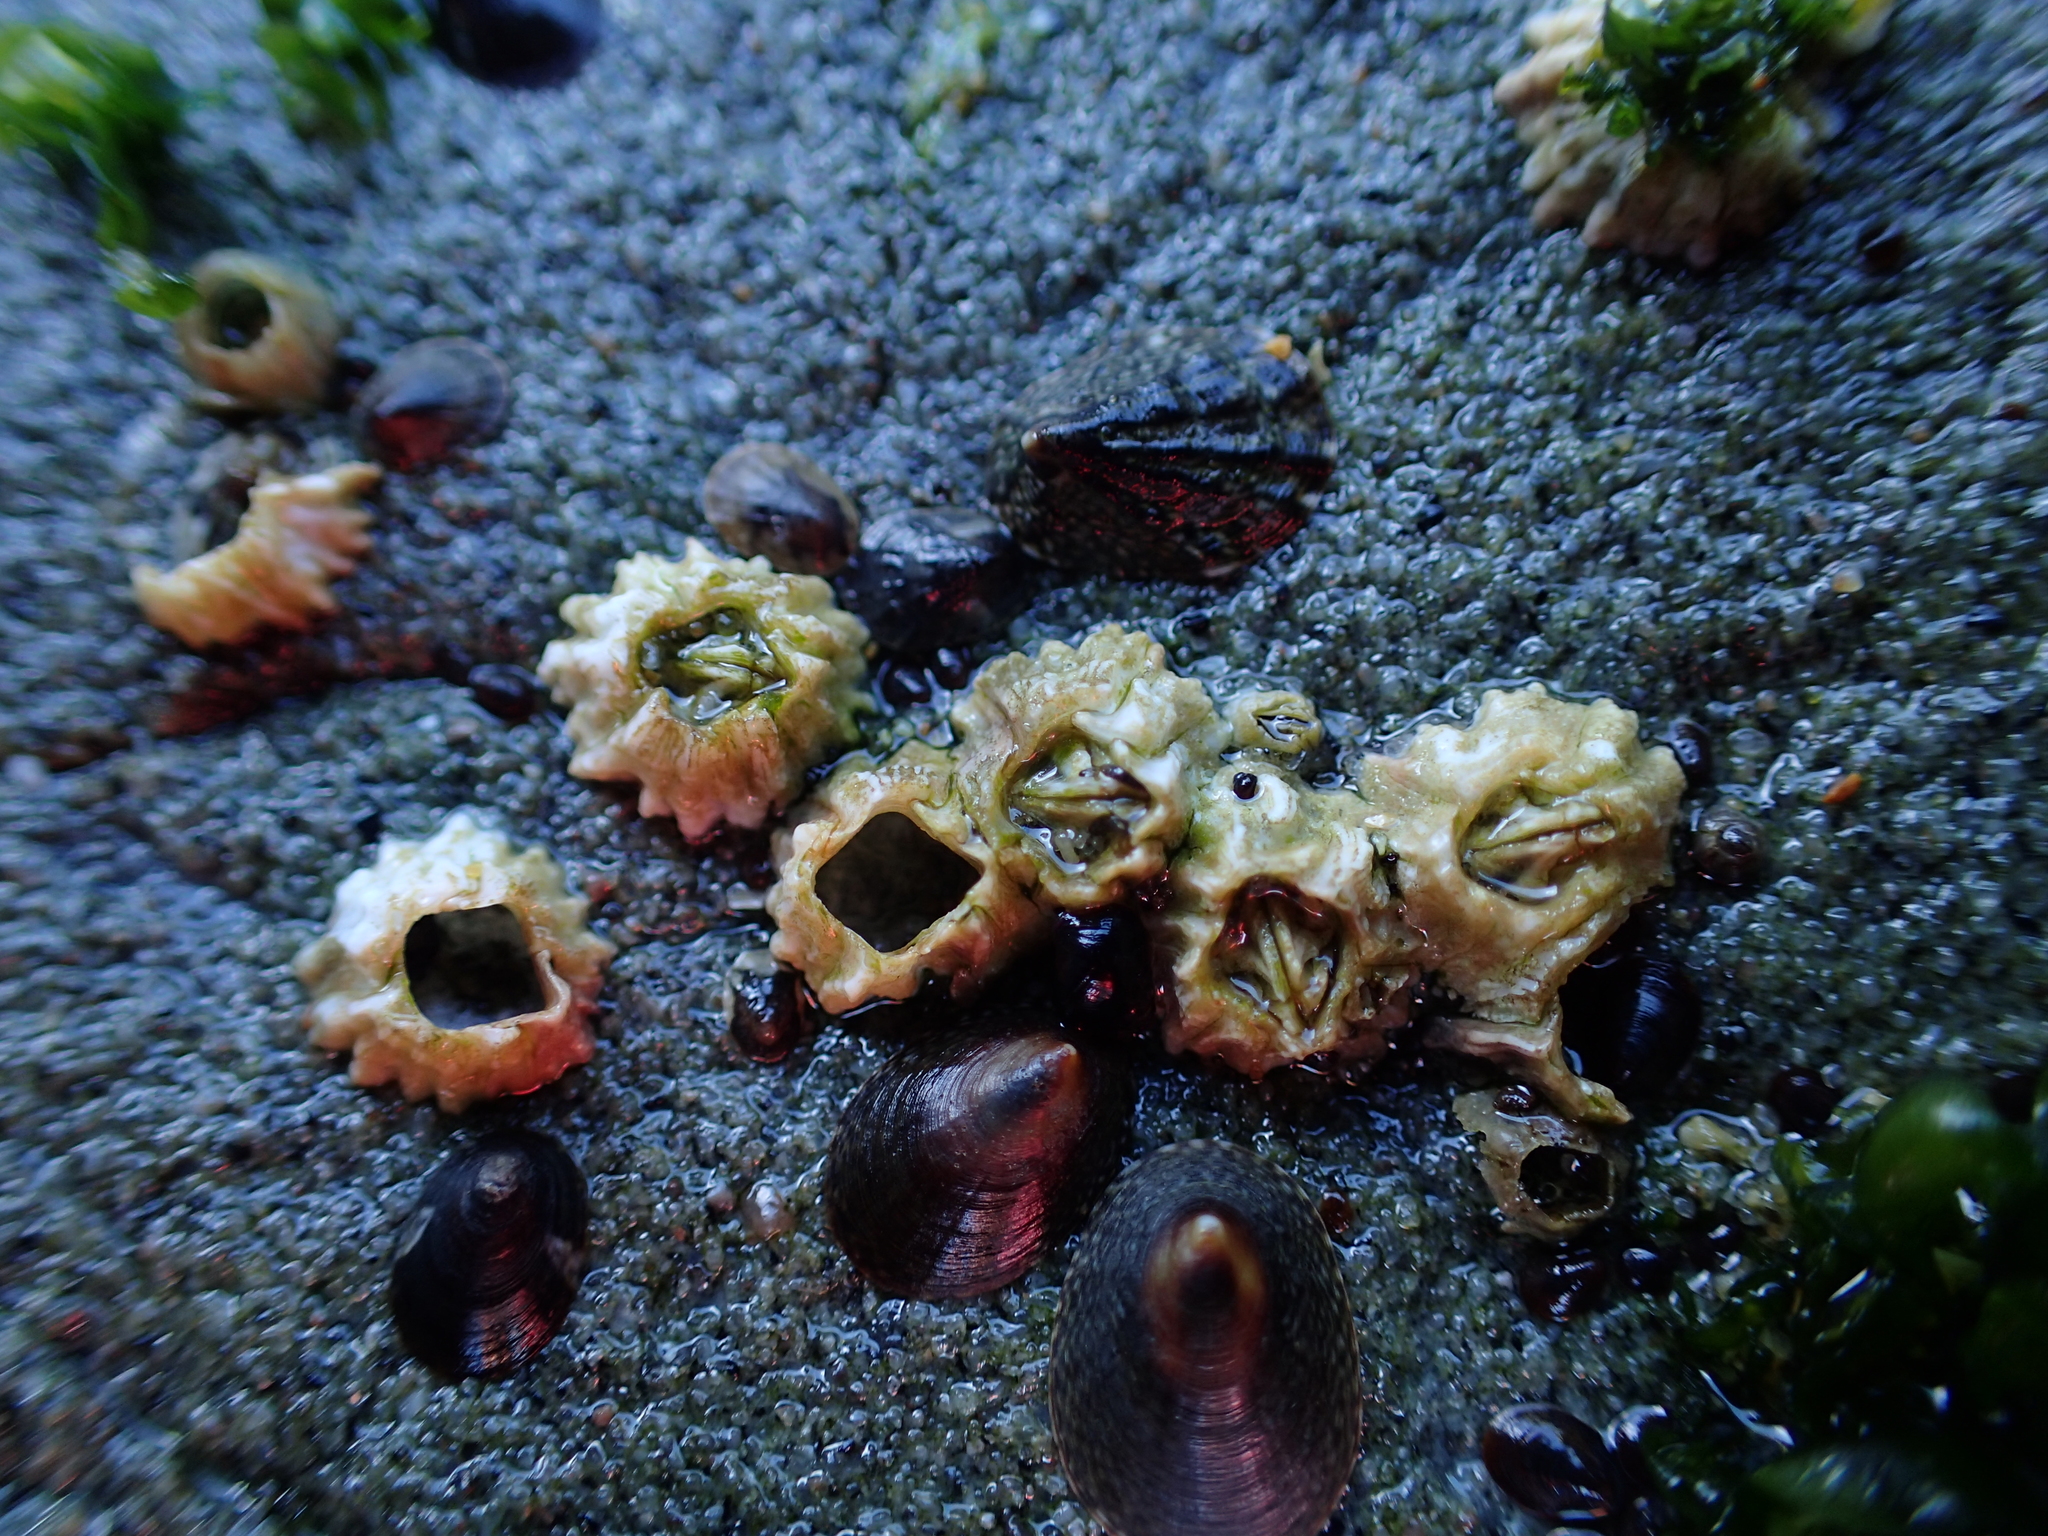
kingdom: Animalia
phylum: Arthropoda
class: Maxillopoda
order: Sessilia
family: Balanidae
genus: Balanus
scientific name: Balanus glandula
